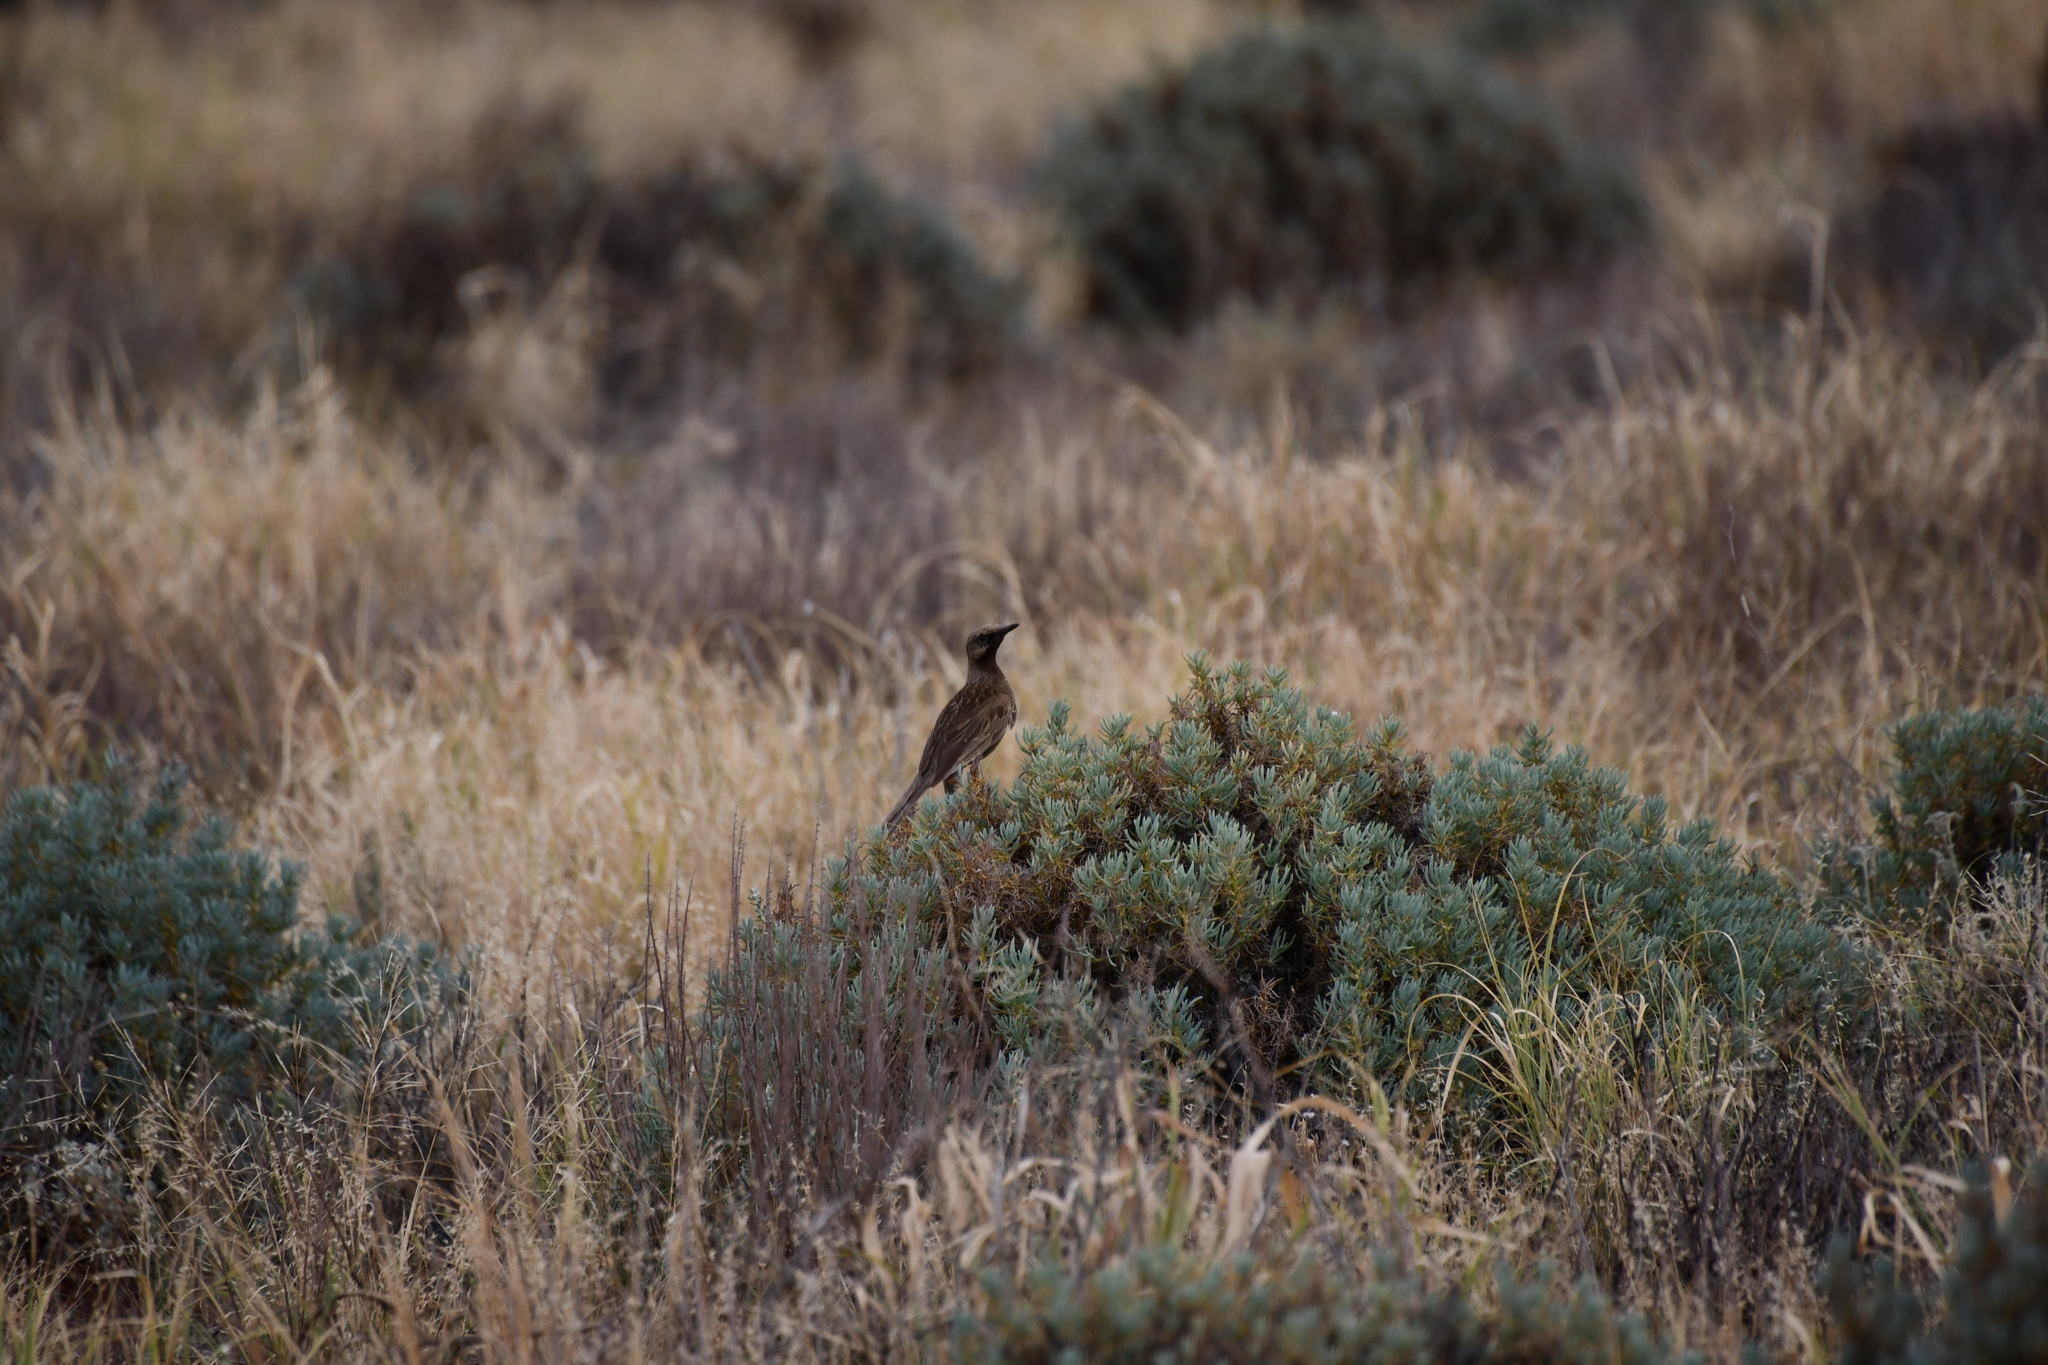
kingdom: Animalia
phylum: Chordata
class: Aves
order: Passeriformes
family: Locustellidae
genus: Megalurus
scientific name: Megalurus cruralis
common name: Brown songlark
